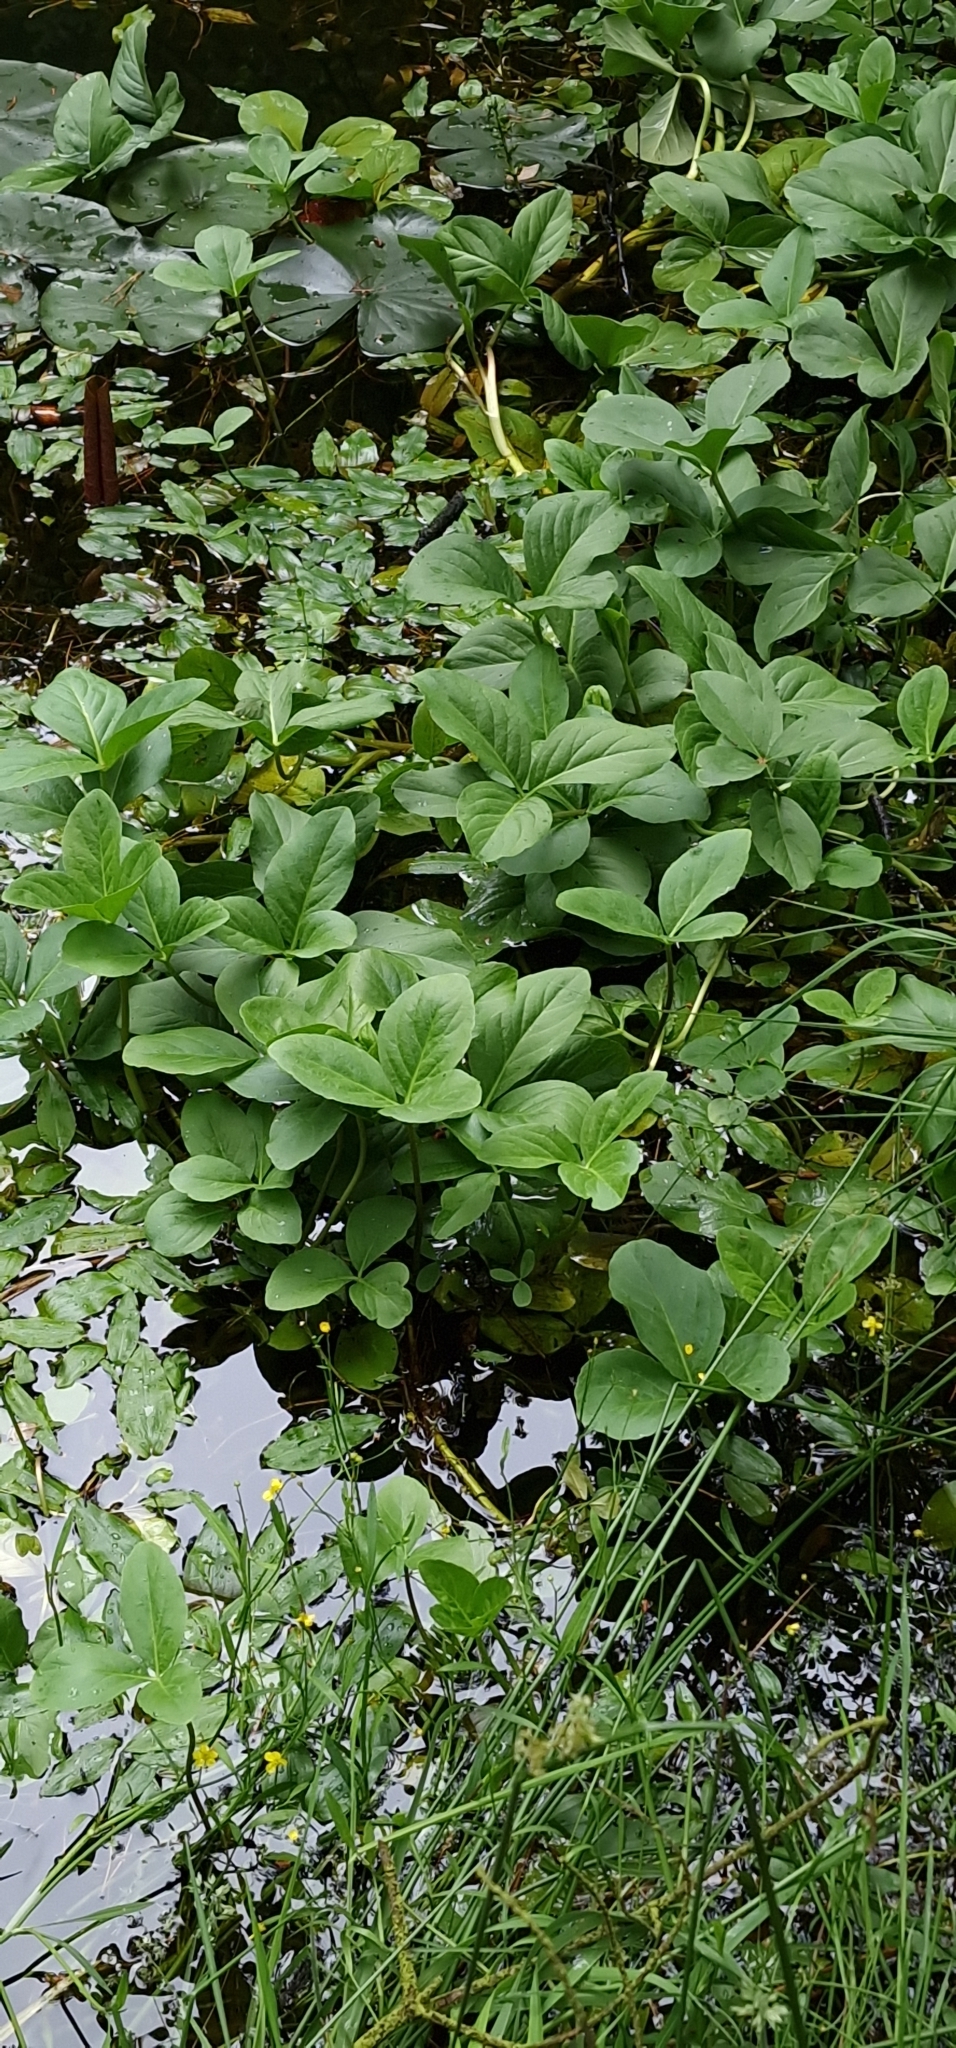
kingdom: Plantae
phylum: Tracheophyta
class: Magnoliopsida
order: Asterales
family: Menyanthaceae
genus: Menyanthes
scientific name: Menyanthes trifoliata
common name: Bogbean
